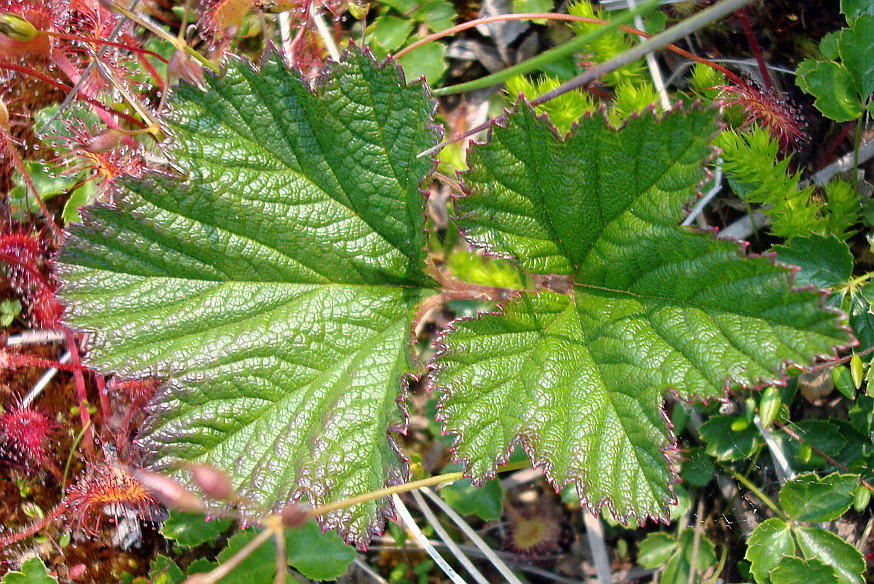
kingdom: Plantae
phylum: Tracheophyta
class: Magnoliopsida
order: Rosales
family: Rosaceae
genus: Rubus
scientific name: Rubus chamaemorus
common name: Cloudberry
